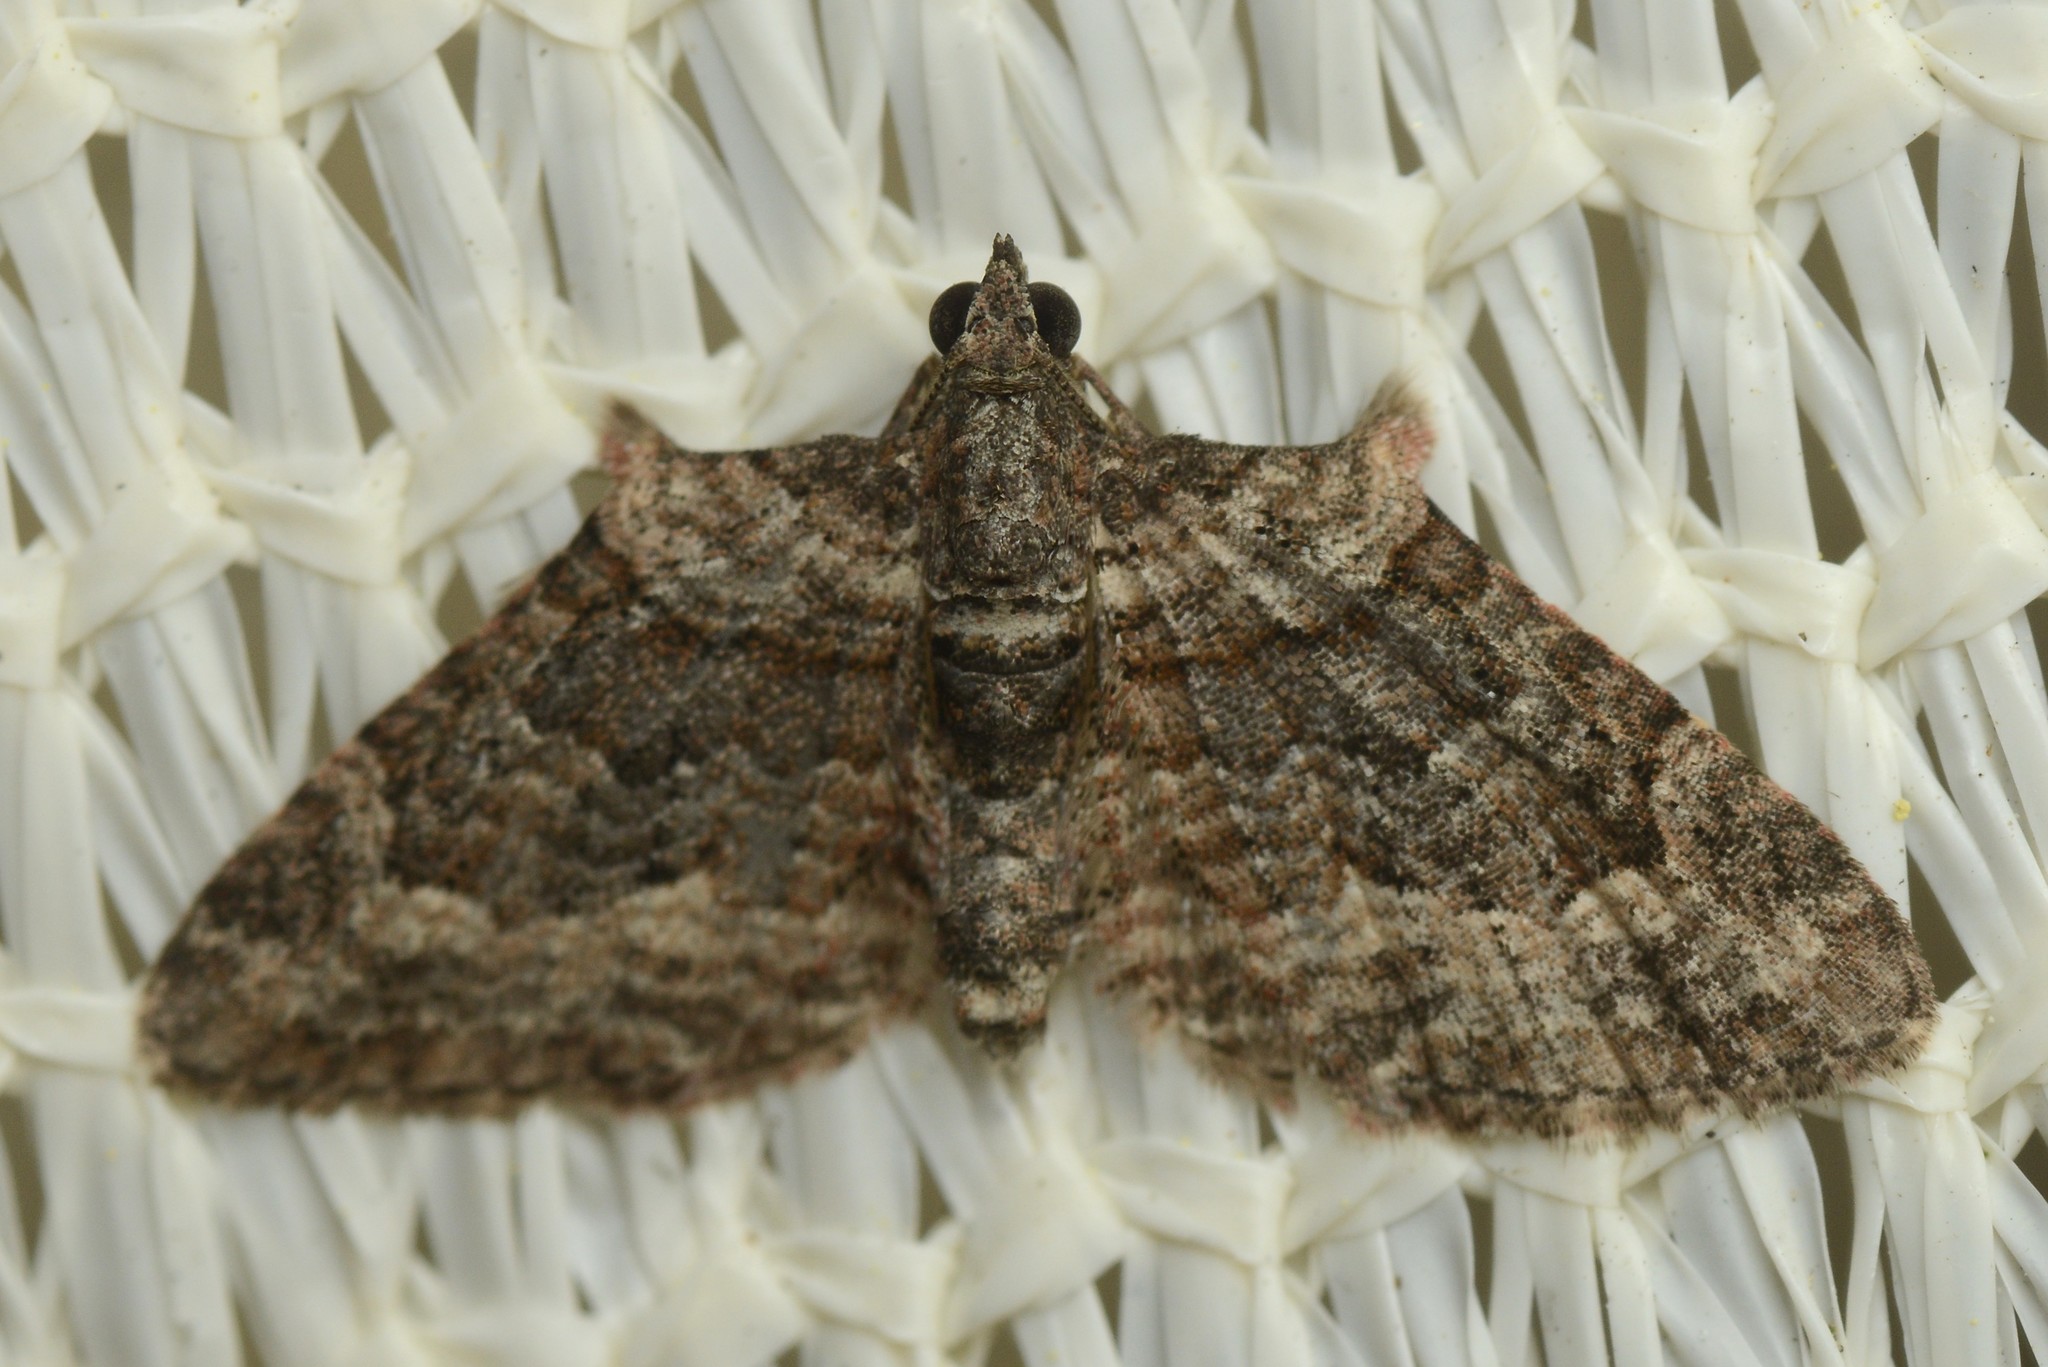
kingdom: Animalia
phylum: Arthropoda
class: Insecta
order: Lepidoptera
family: Geometridae
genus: Phrissogonus
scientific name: Phrissogonus laticostata
